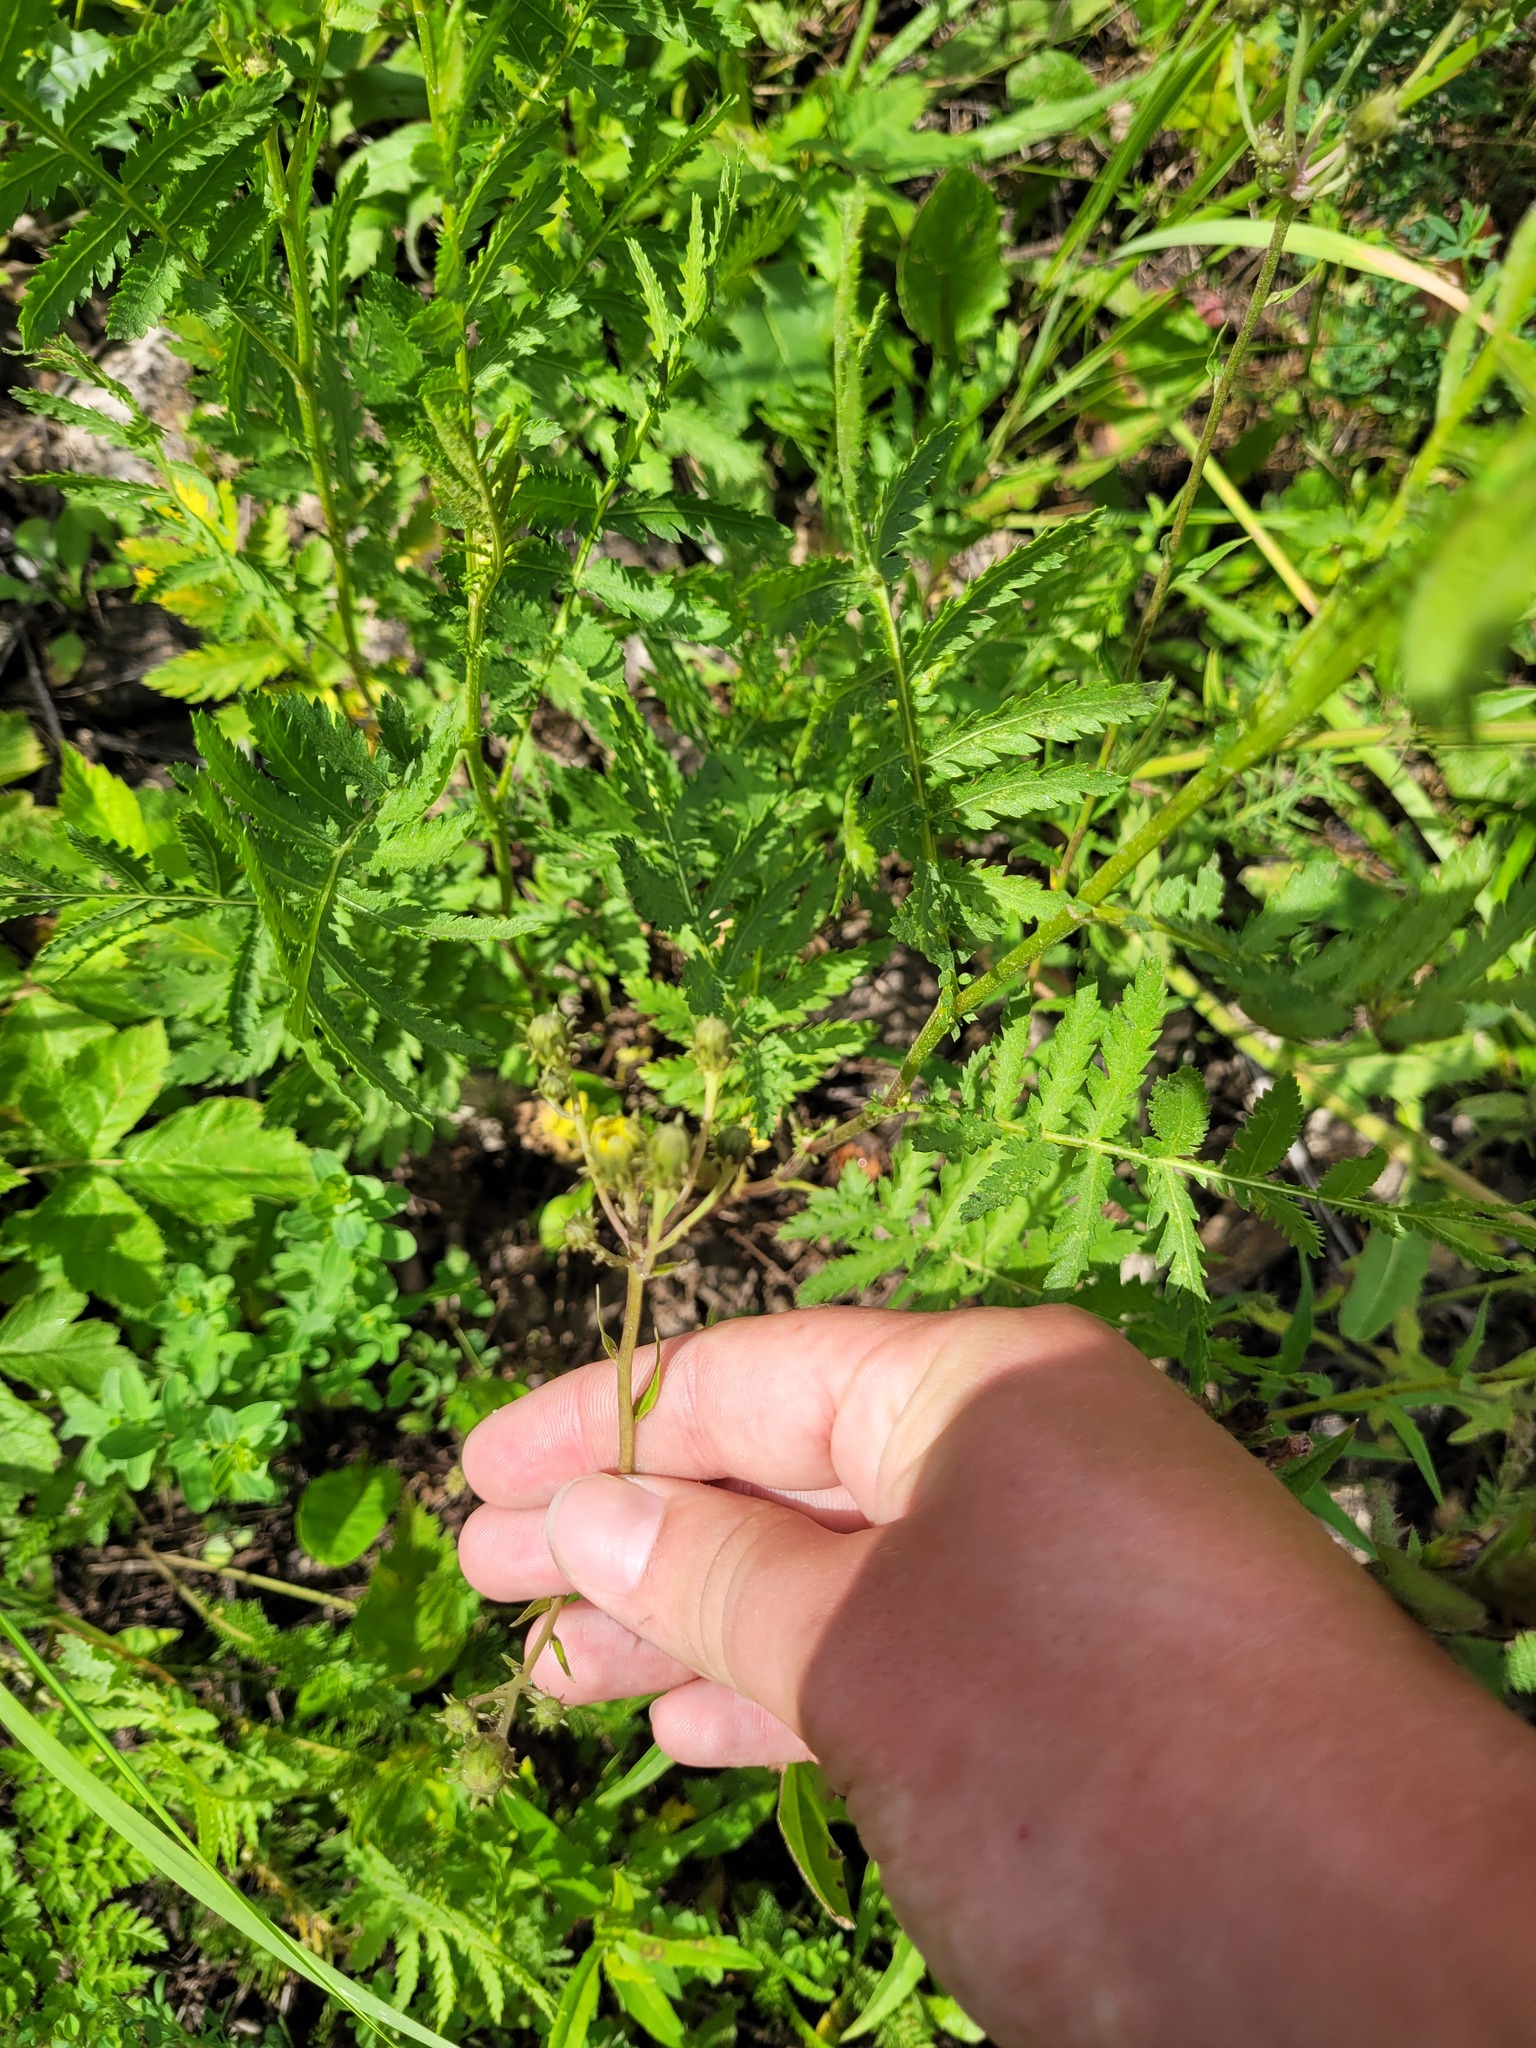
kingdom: Plantae
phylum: Tracheophyta
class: Magnoliopsida
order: Asterales
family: Asteraceae
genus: Hieracium
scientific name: Hieracium umbellatum
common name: Northern hawkweed
